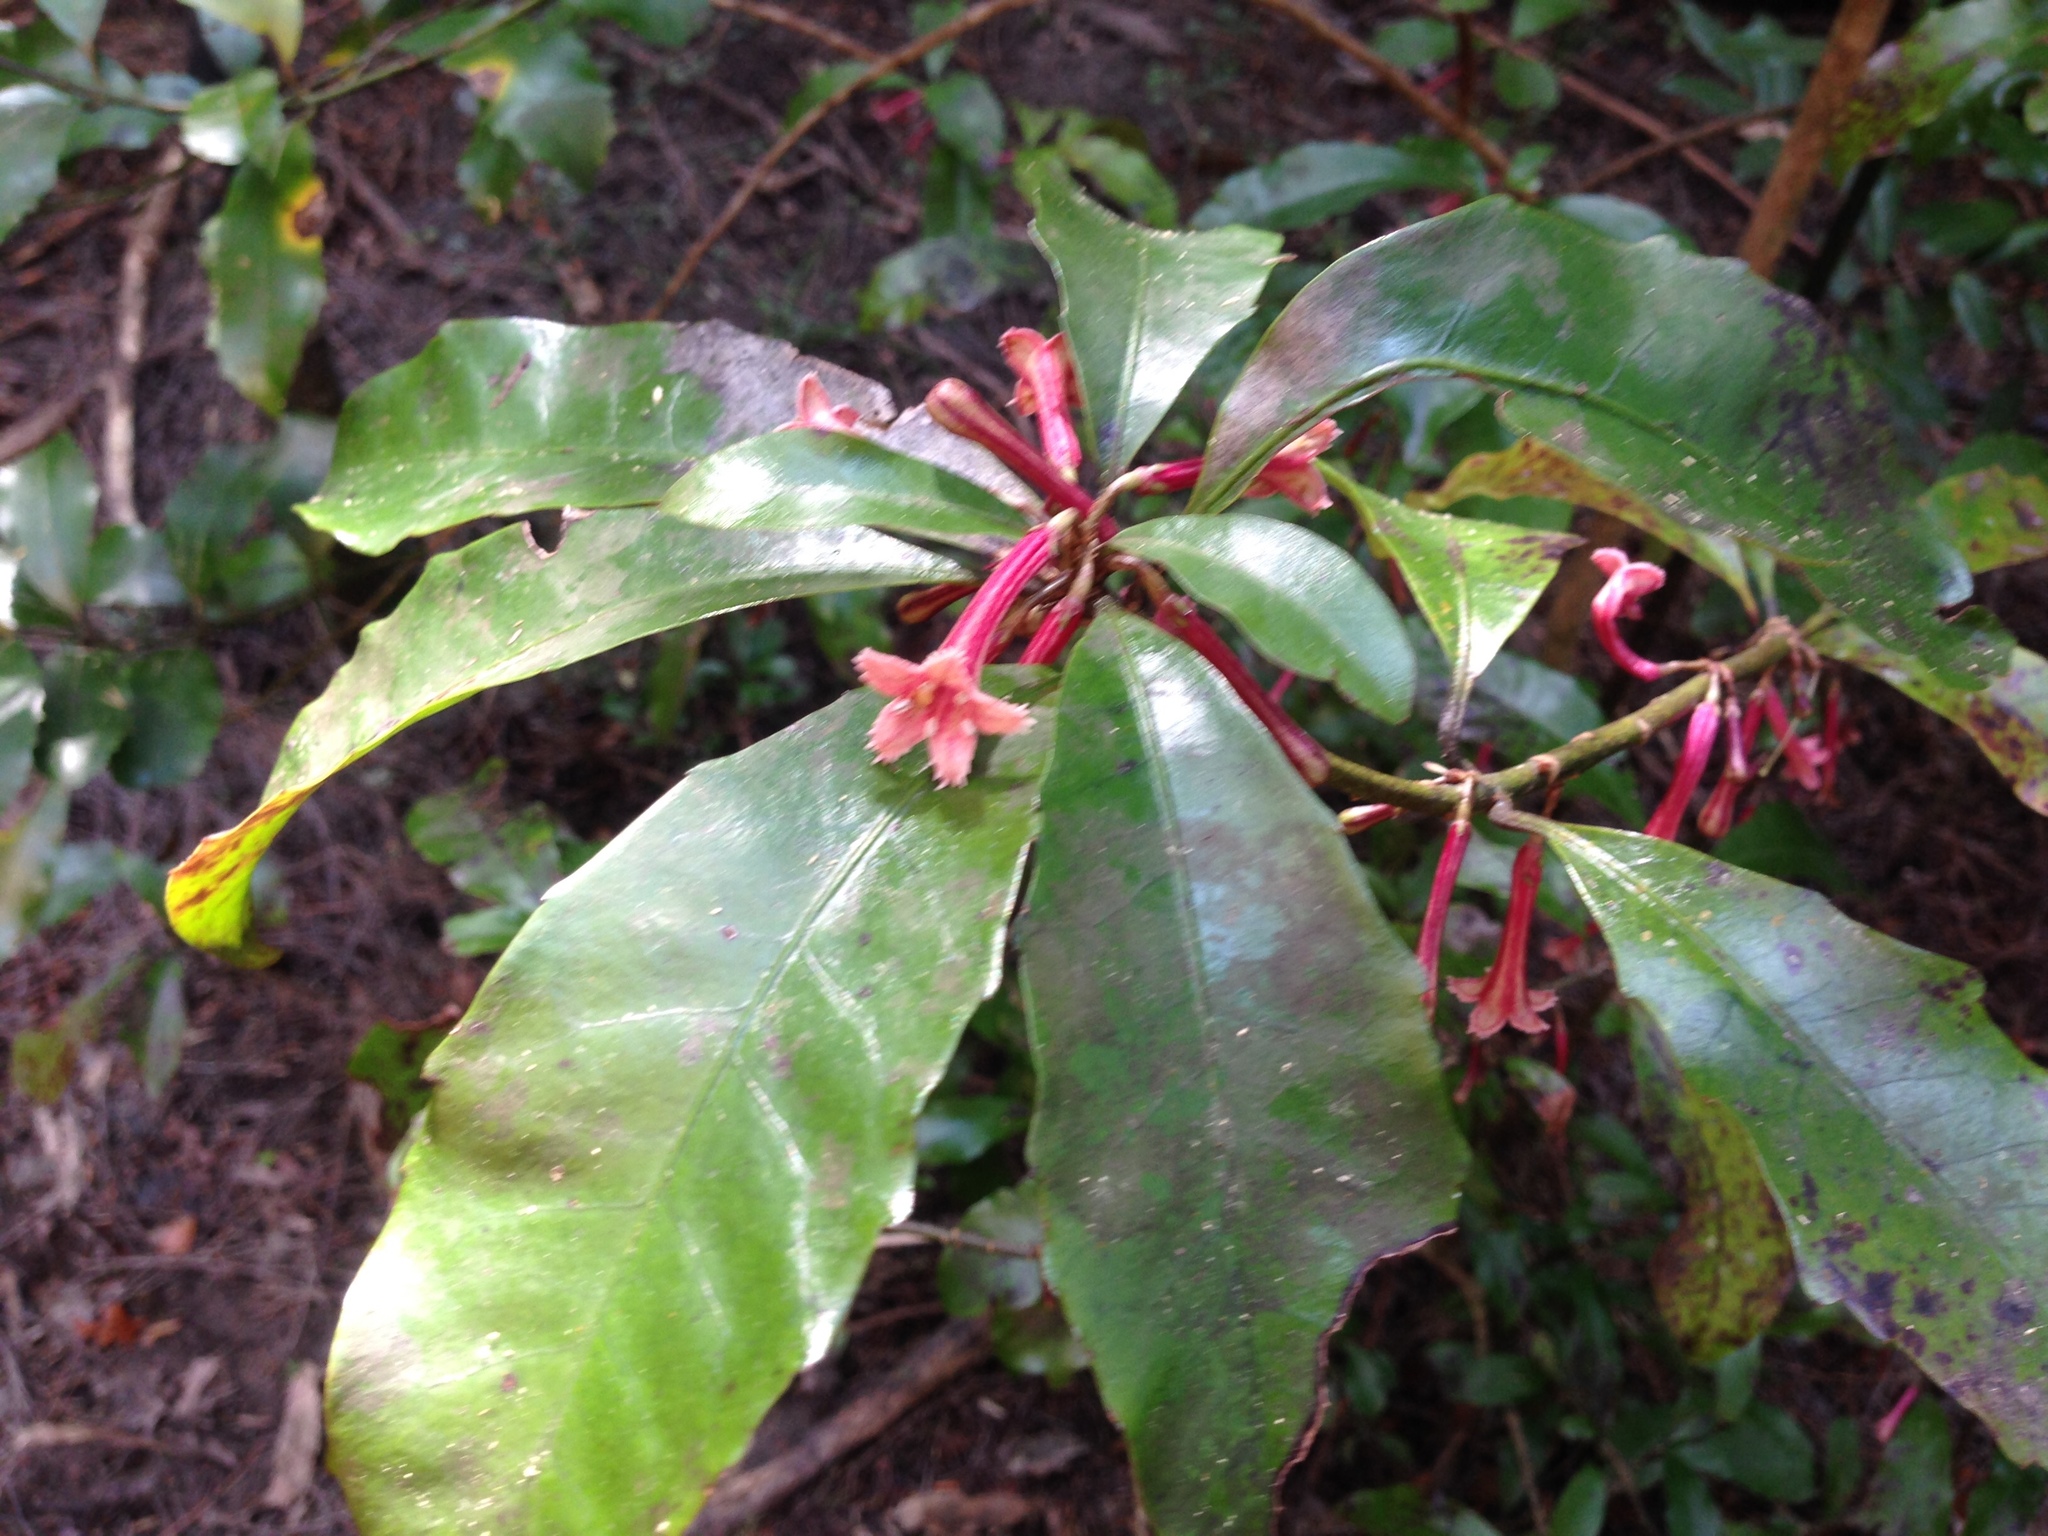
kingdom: Plantae
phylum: Tracheophyta
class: Magnoliopsida
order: Asterales
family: Alseuosmiaceae
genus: Alseuosmia
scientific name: Alseuosmia macrophylla
